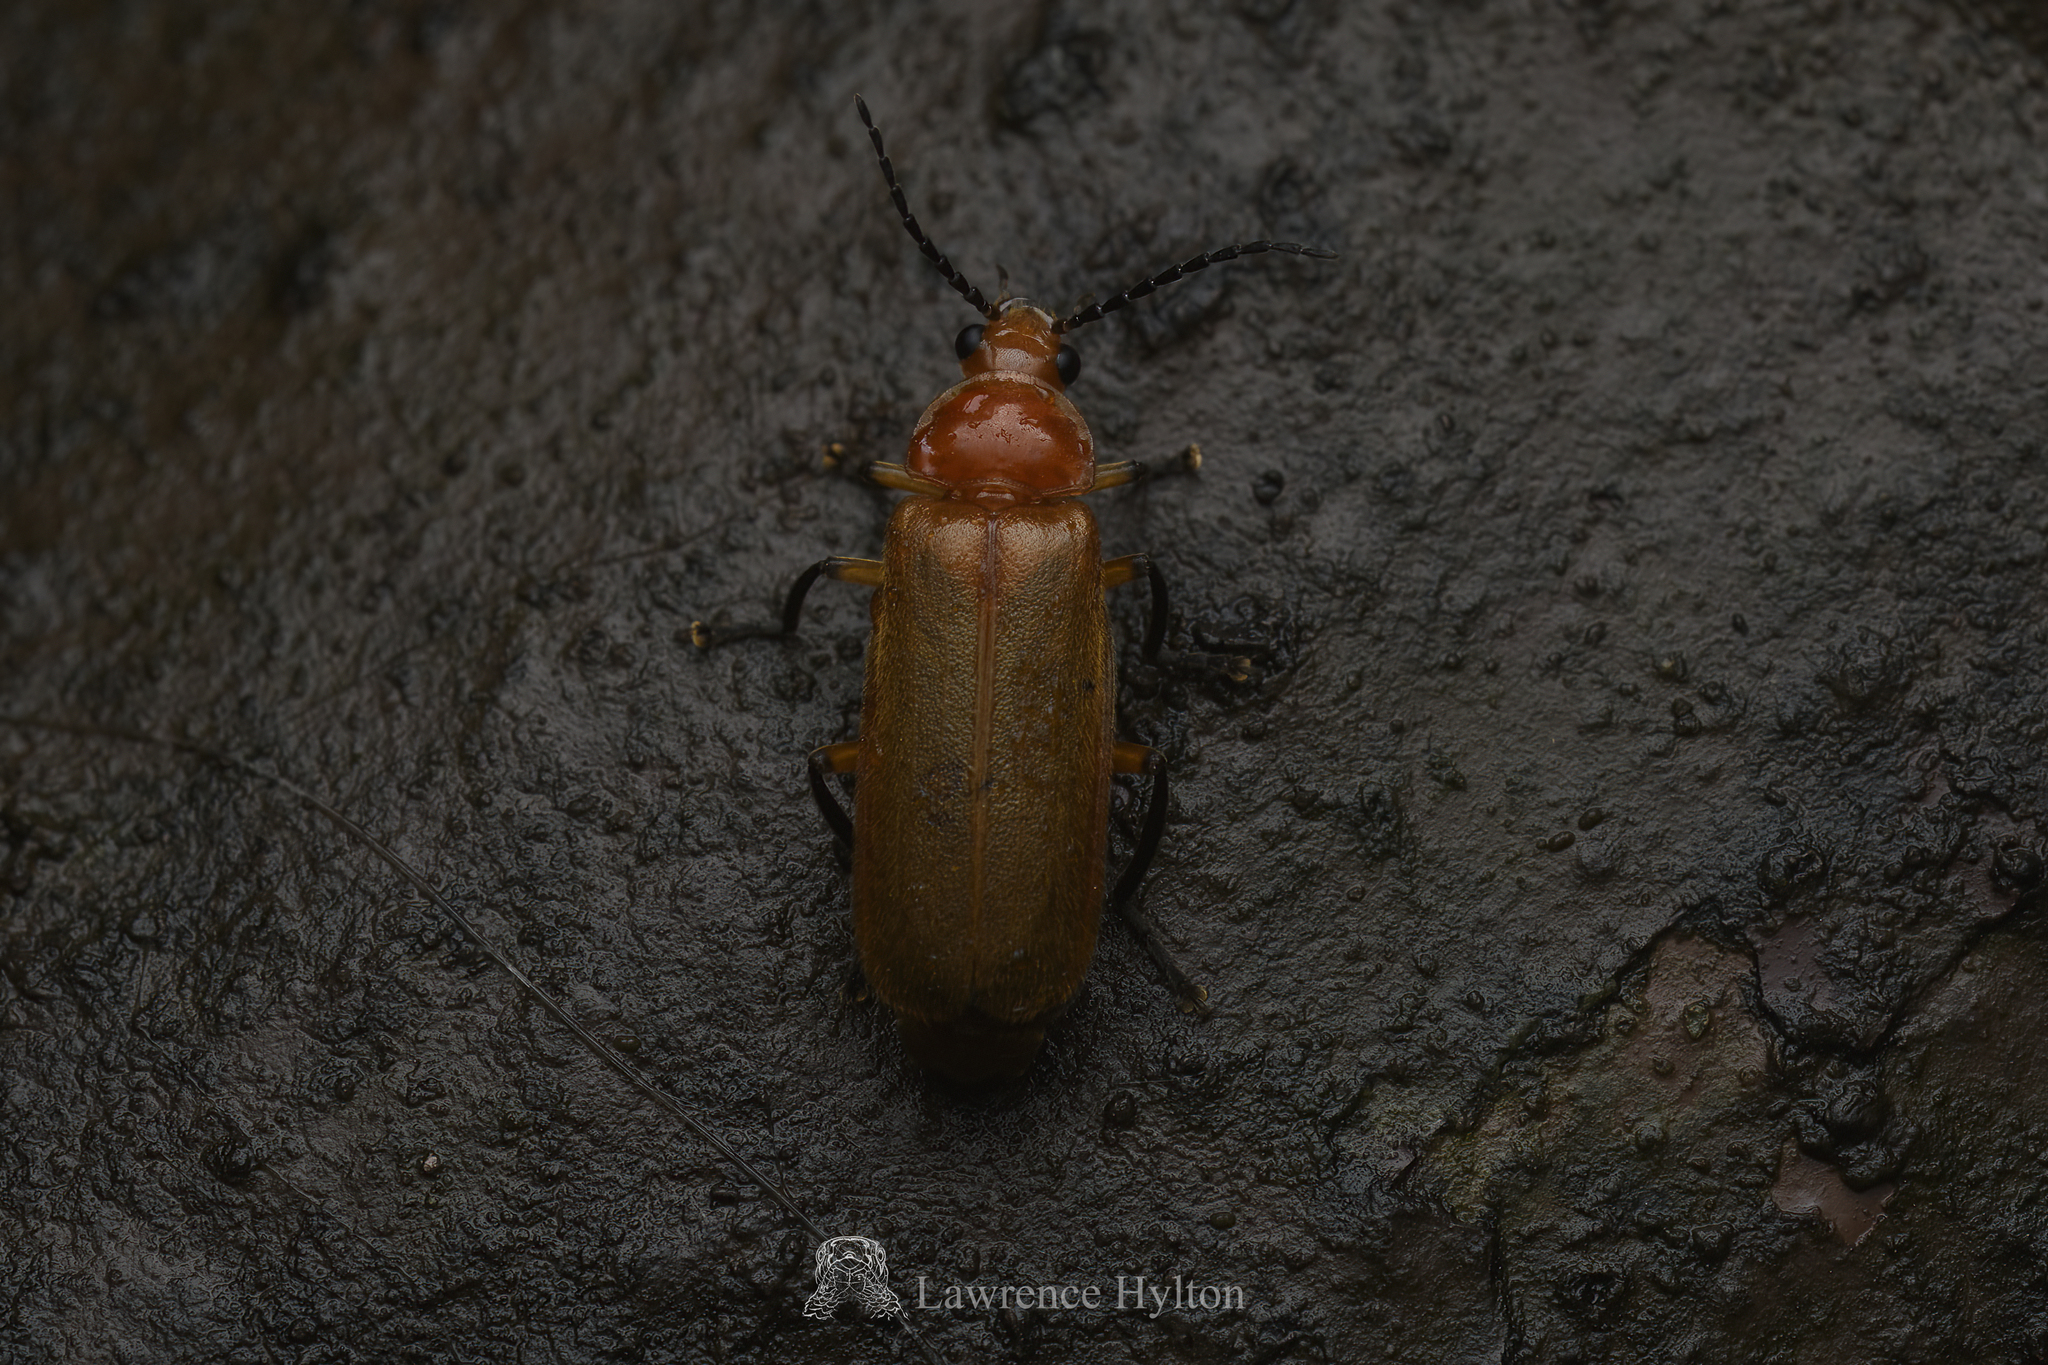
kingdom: Animalia
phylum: Arthropoda
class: Insecta
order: Coleoptera
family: Cantharidae
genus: Macrosilis
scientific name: Macrosilis
